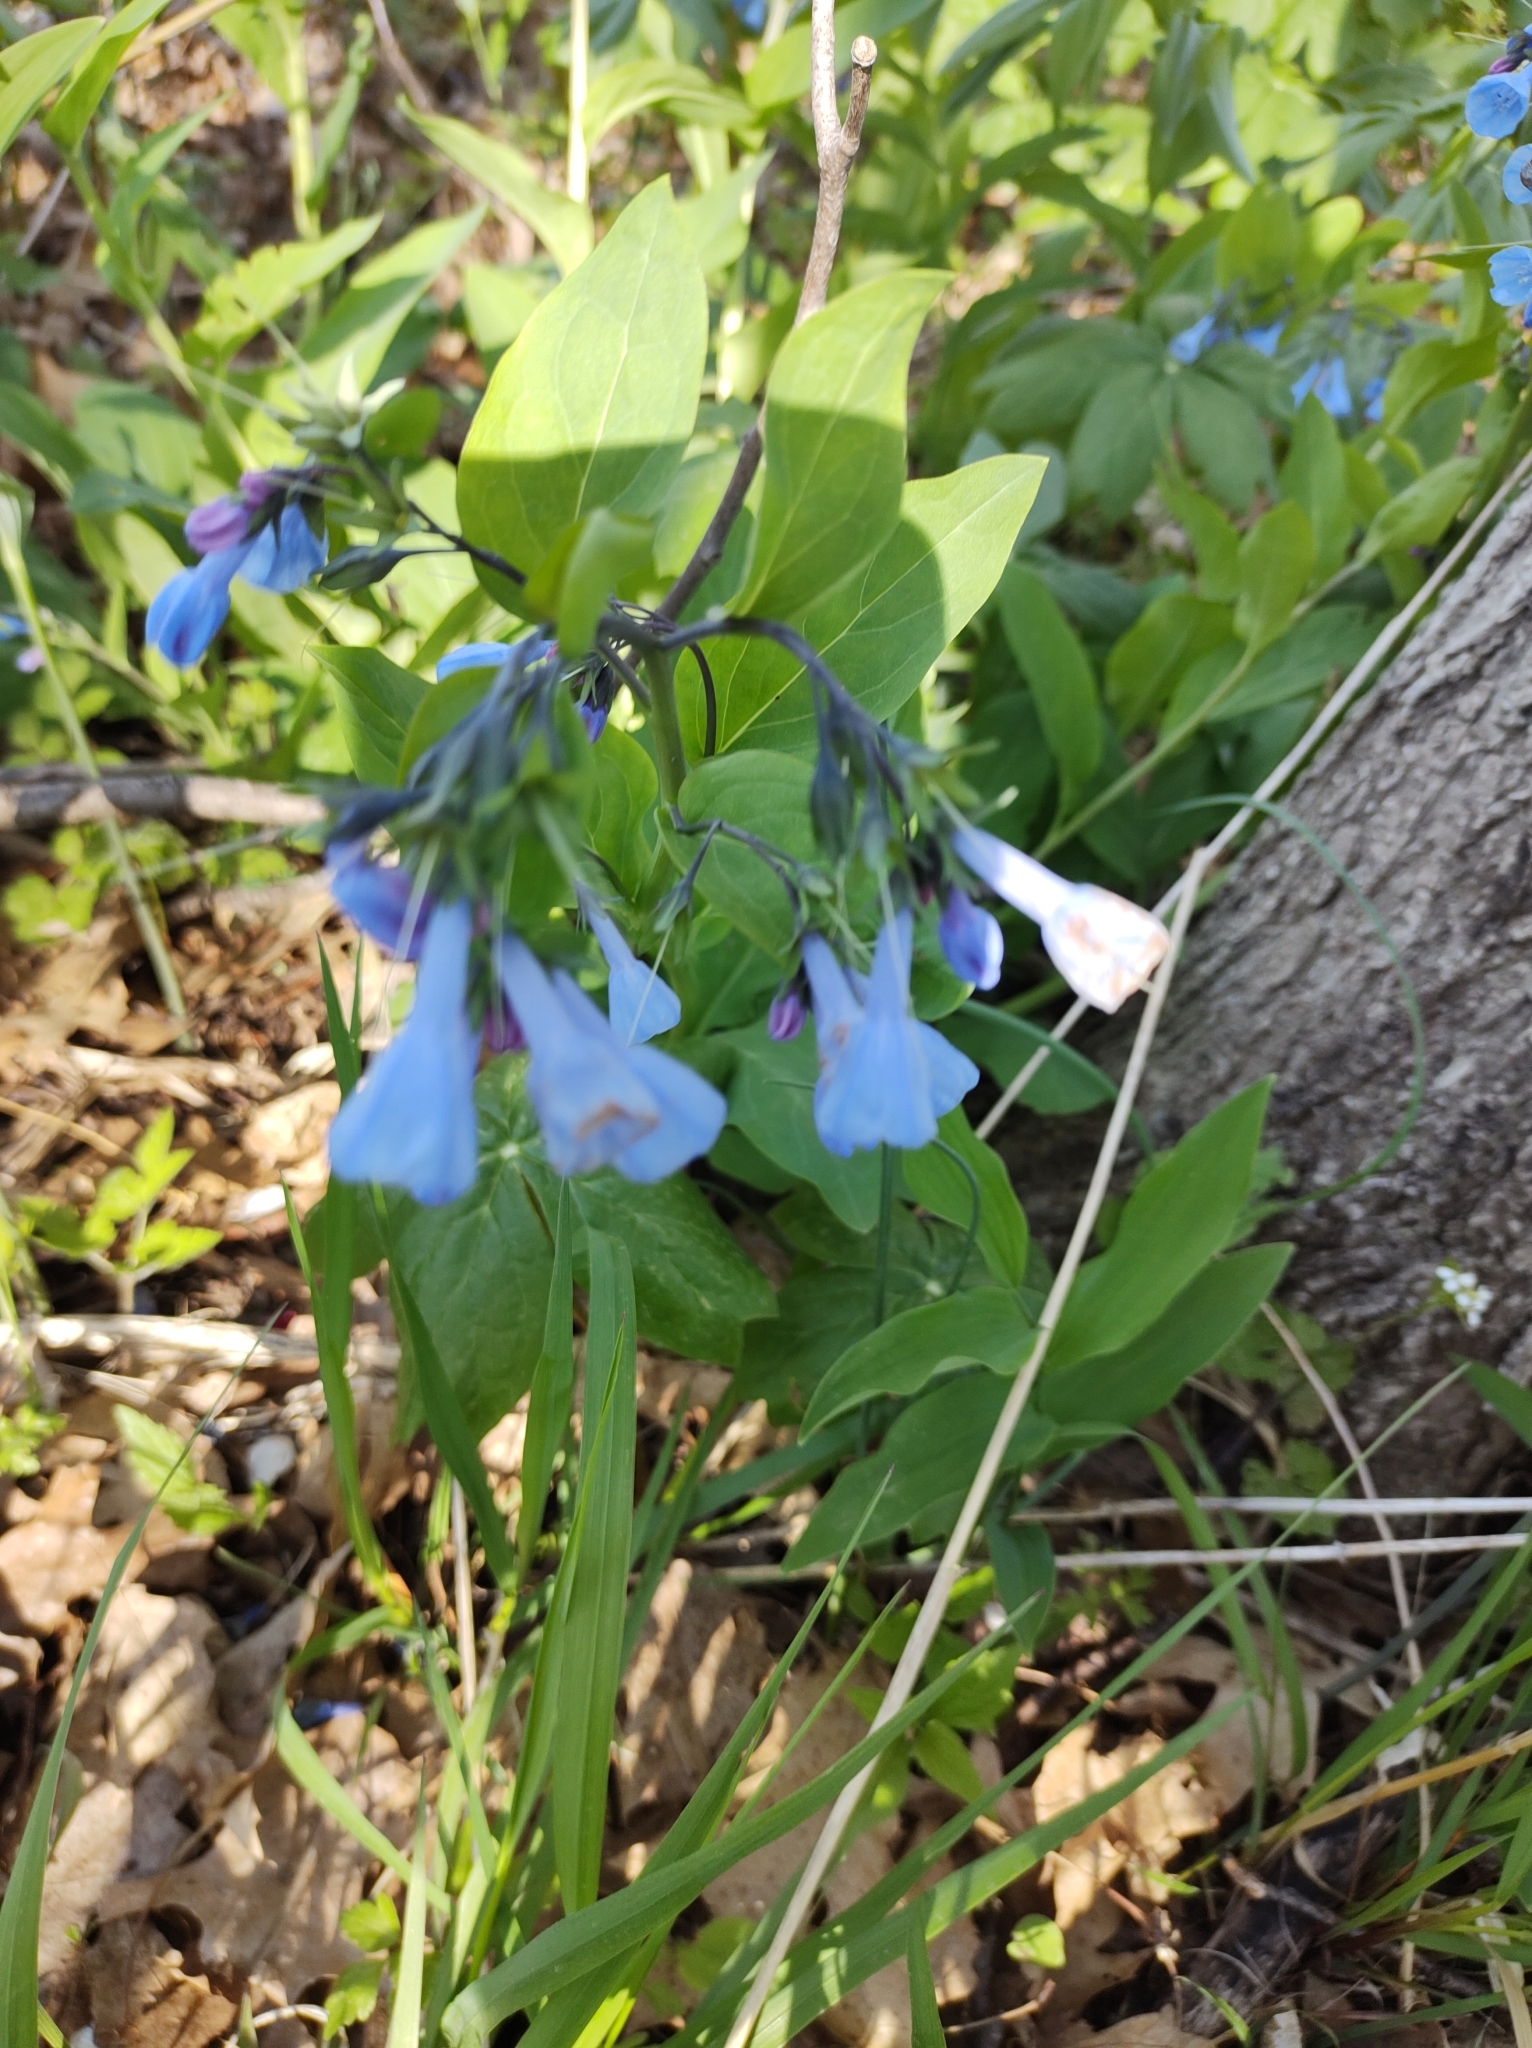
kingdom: Plantae
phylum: Tracheophyta
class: Magnoliopsida
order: Boraginales
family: Boraginaceae
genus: Mertensia
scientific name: Mertensia virginica
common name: Virginia bluebells
